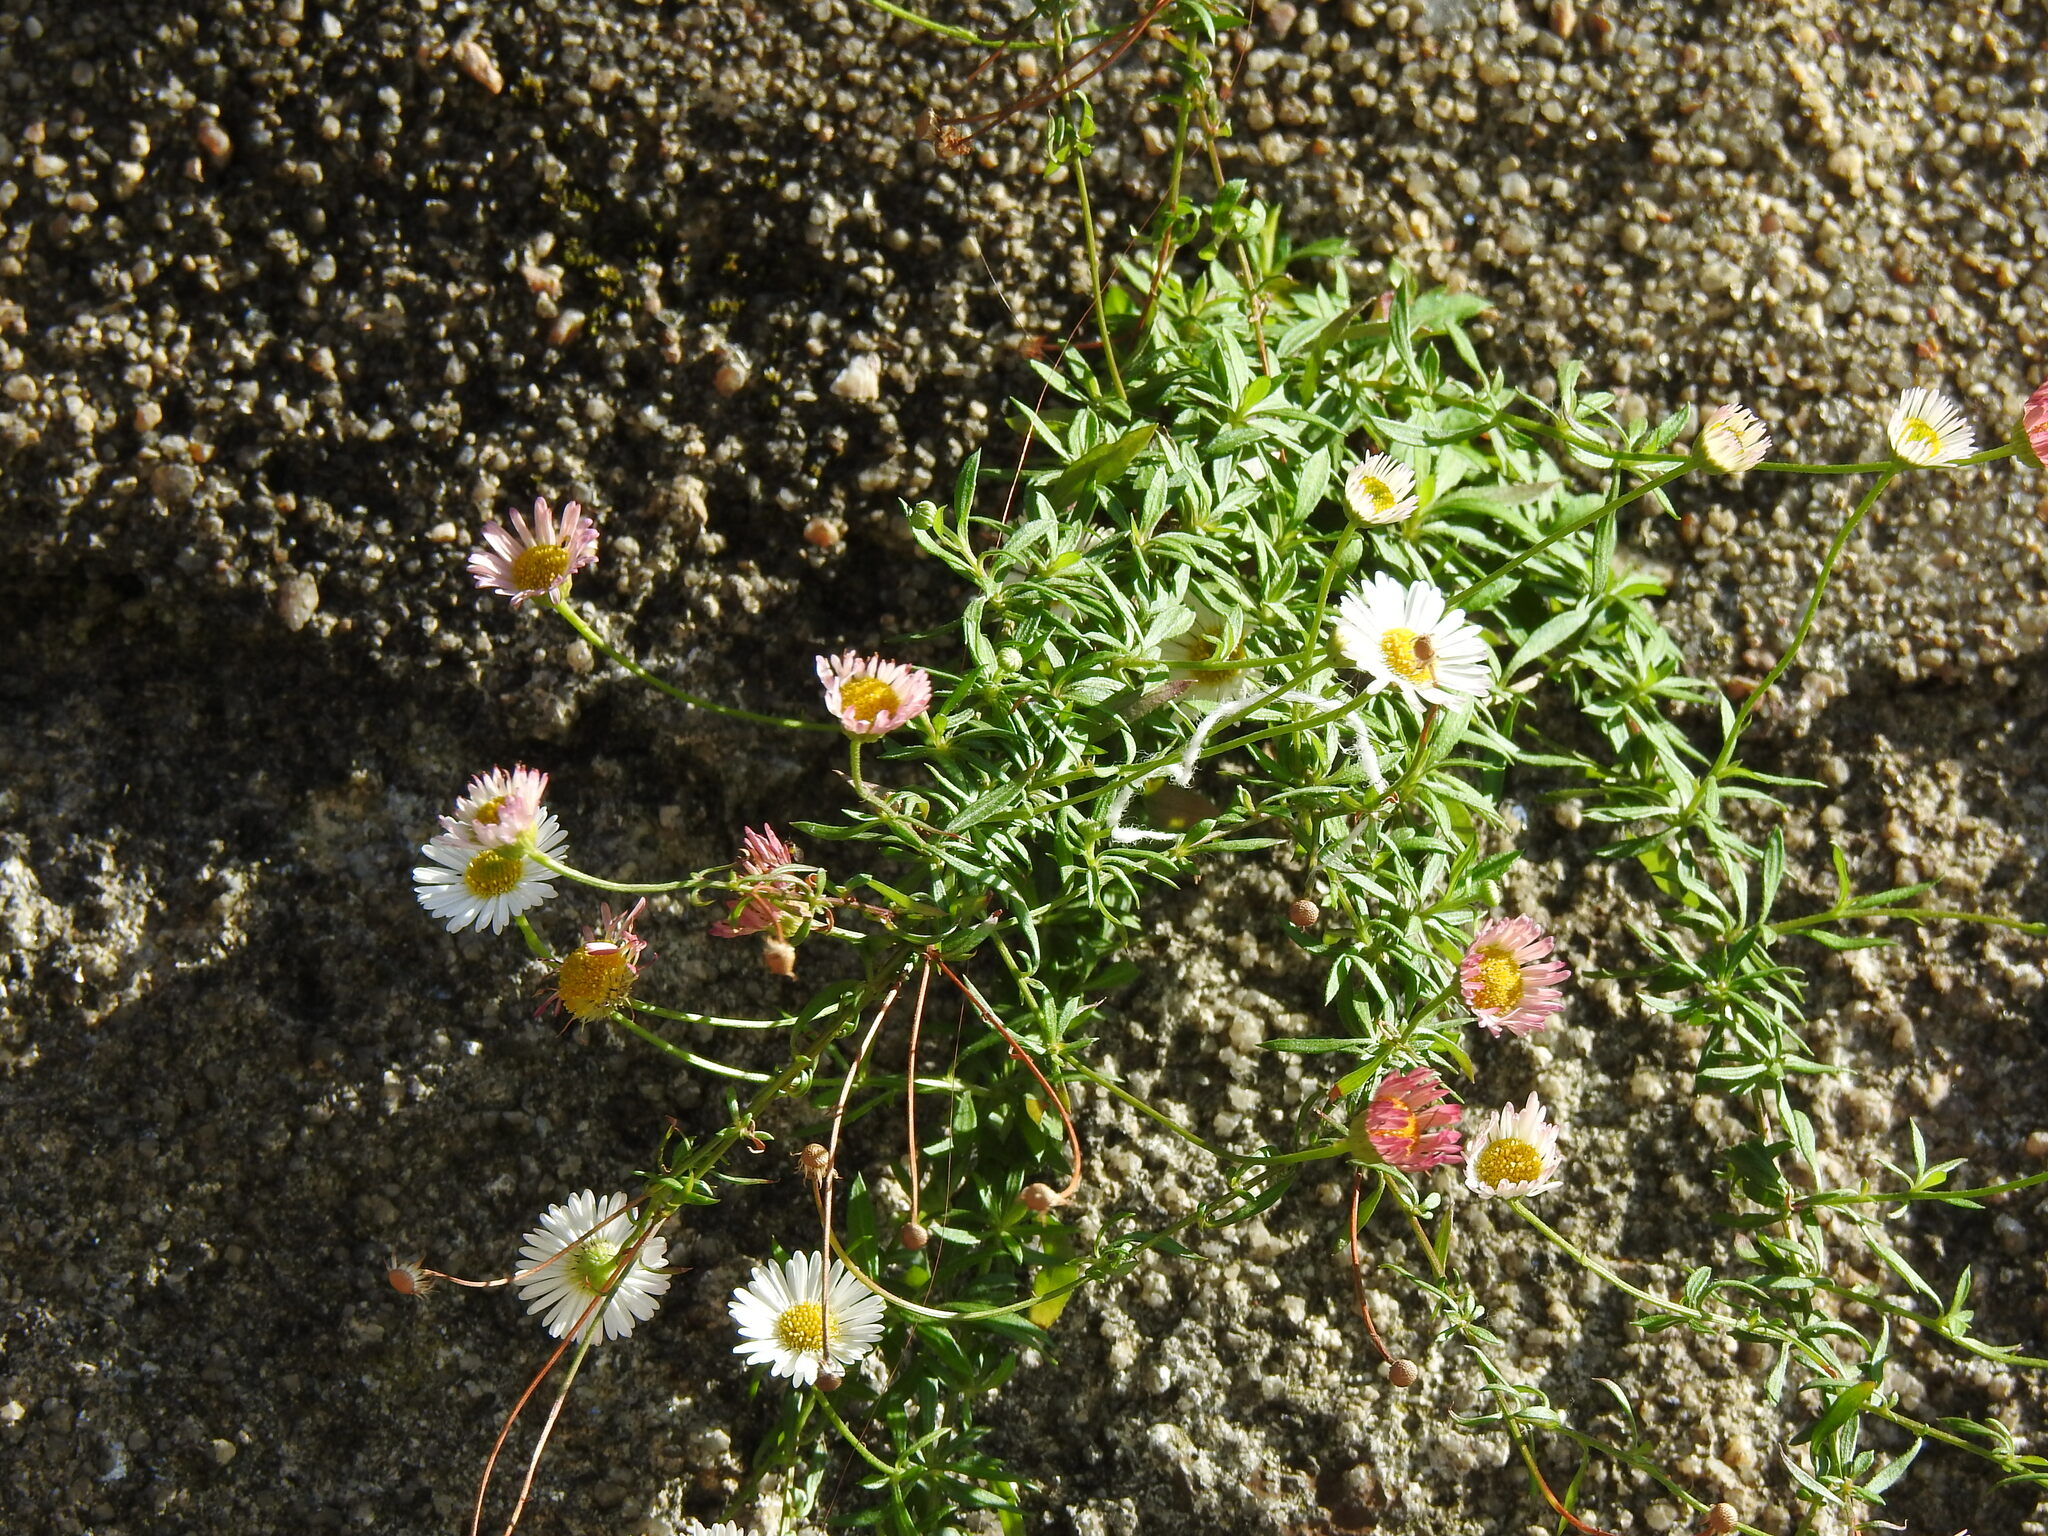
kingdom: Plantae
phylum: Tracheophyta
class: Magnoliopsida
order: Asterales
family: Asteraceae
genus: Erigeron
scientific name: Erigeron karvinskianus
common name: Mexican fleabane
